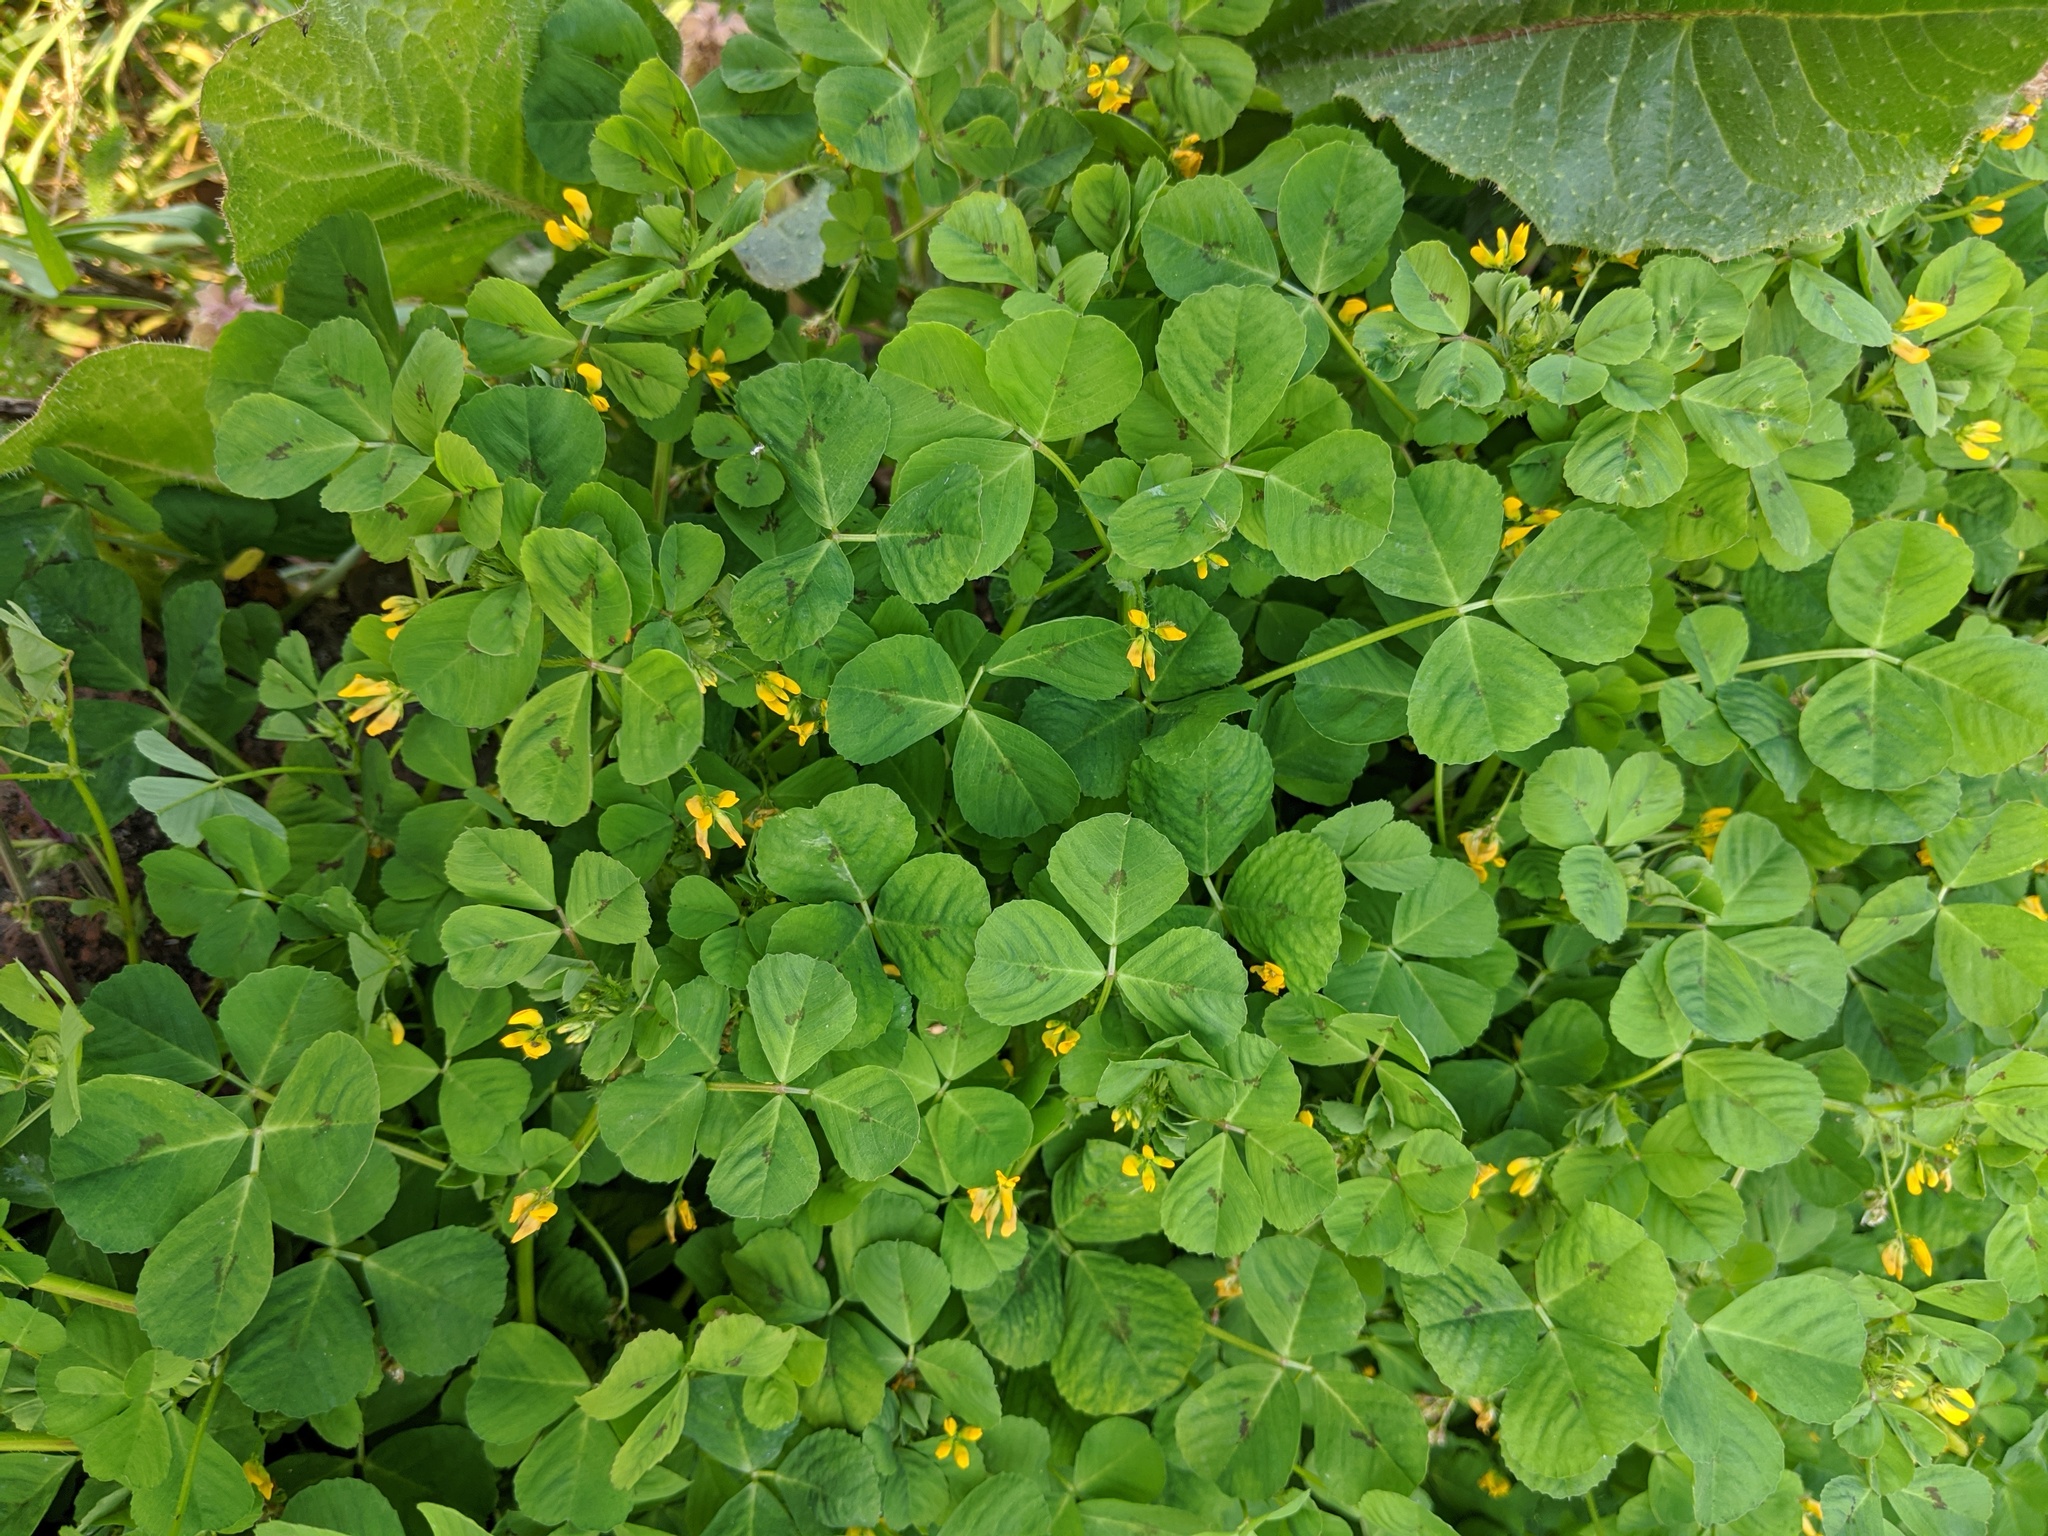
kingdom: Plantae
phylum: Tracheophyta
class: Magnoliopsida
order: Fabales
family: Fabaceae
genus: Medicago
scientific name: Medicago arabica
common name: Spotted medick
